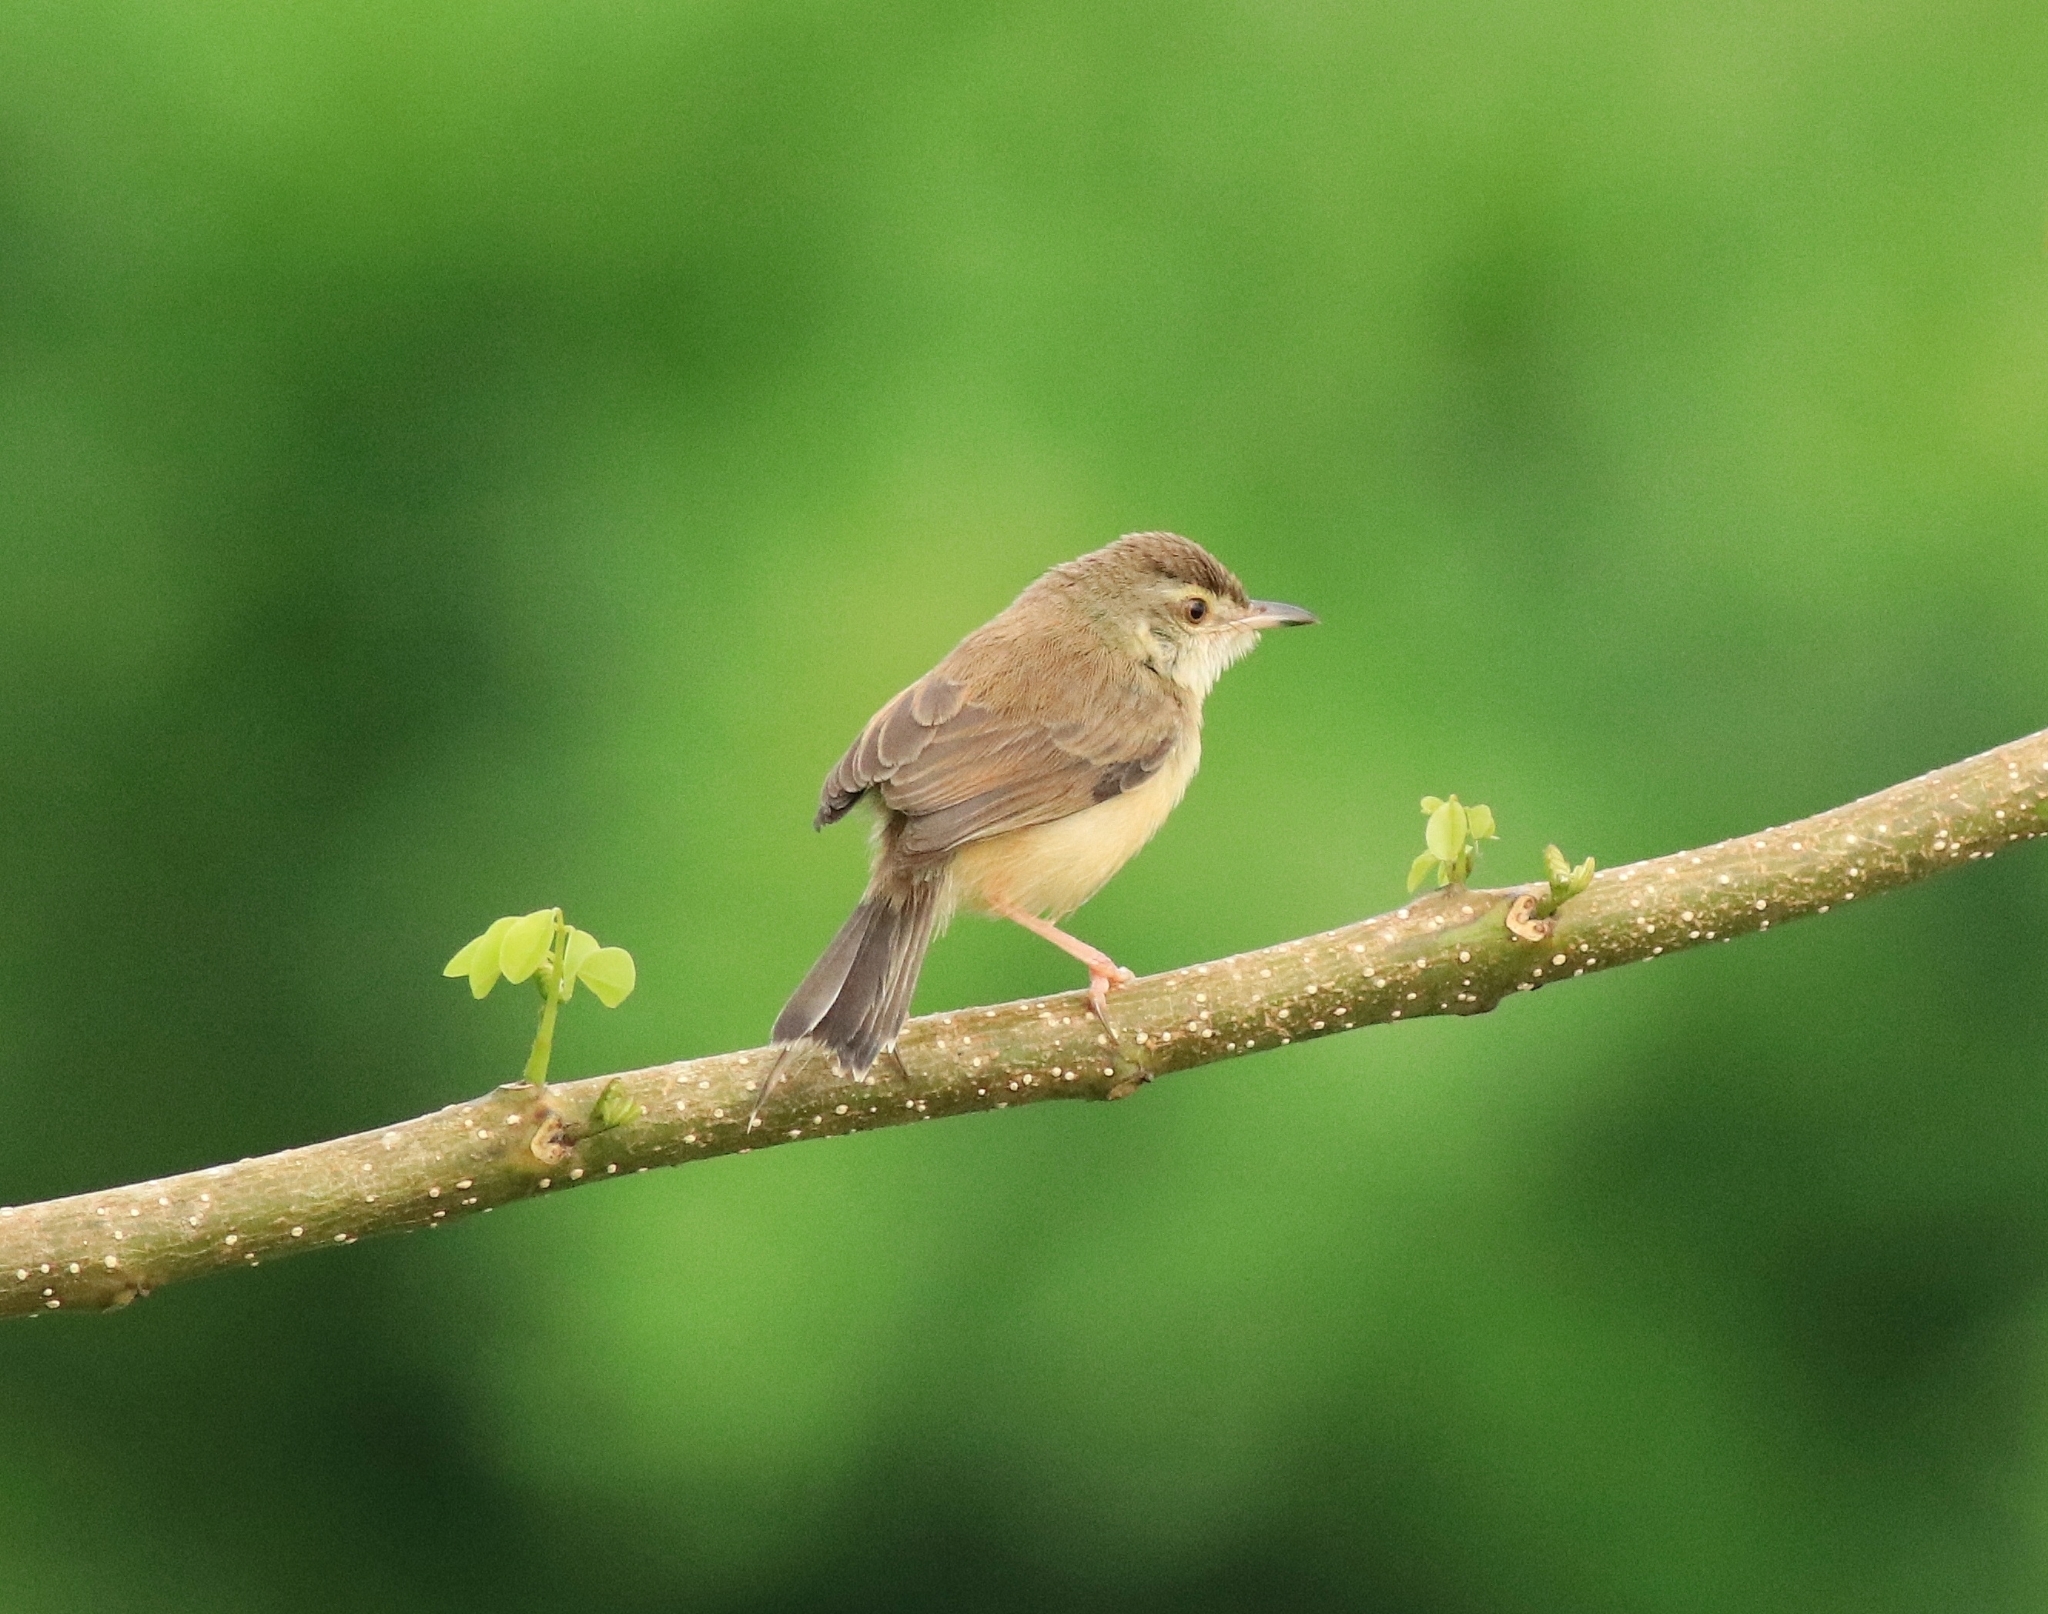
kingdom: Animalia
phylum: Chordata
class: Aves
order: Passeriformes
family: Cisticolidae
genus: Prinia
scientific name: Prinia inornata
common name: Plain prinia
